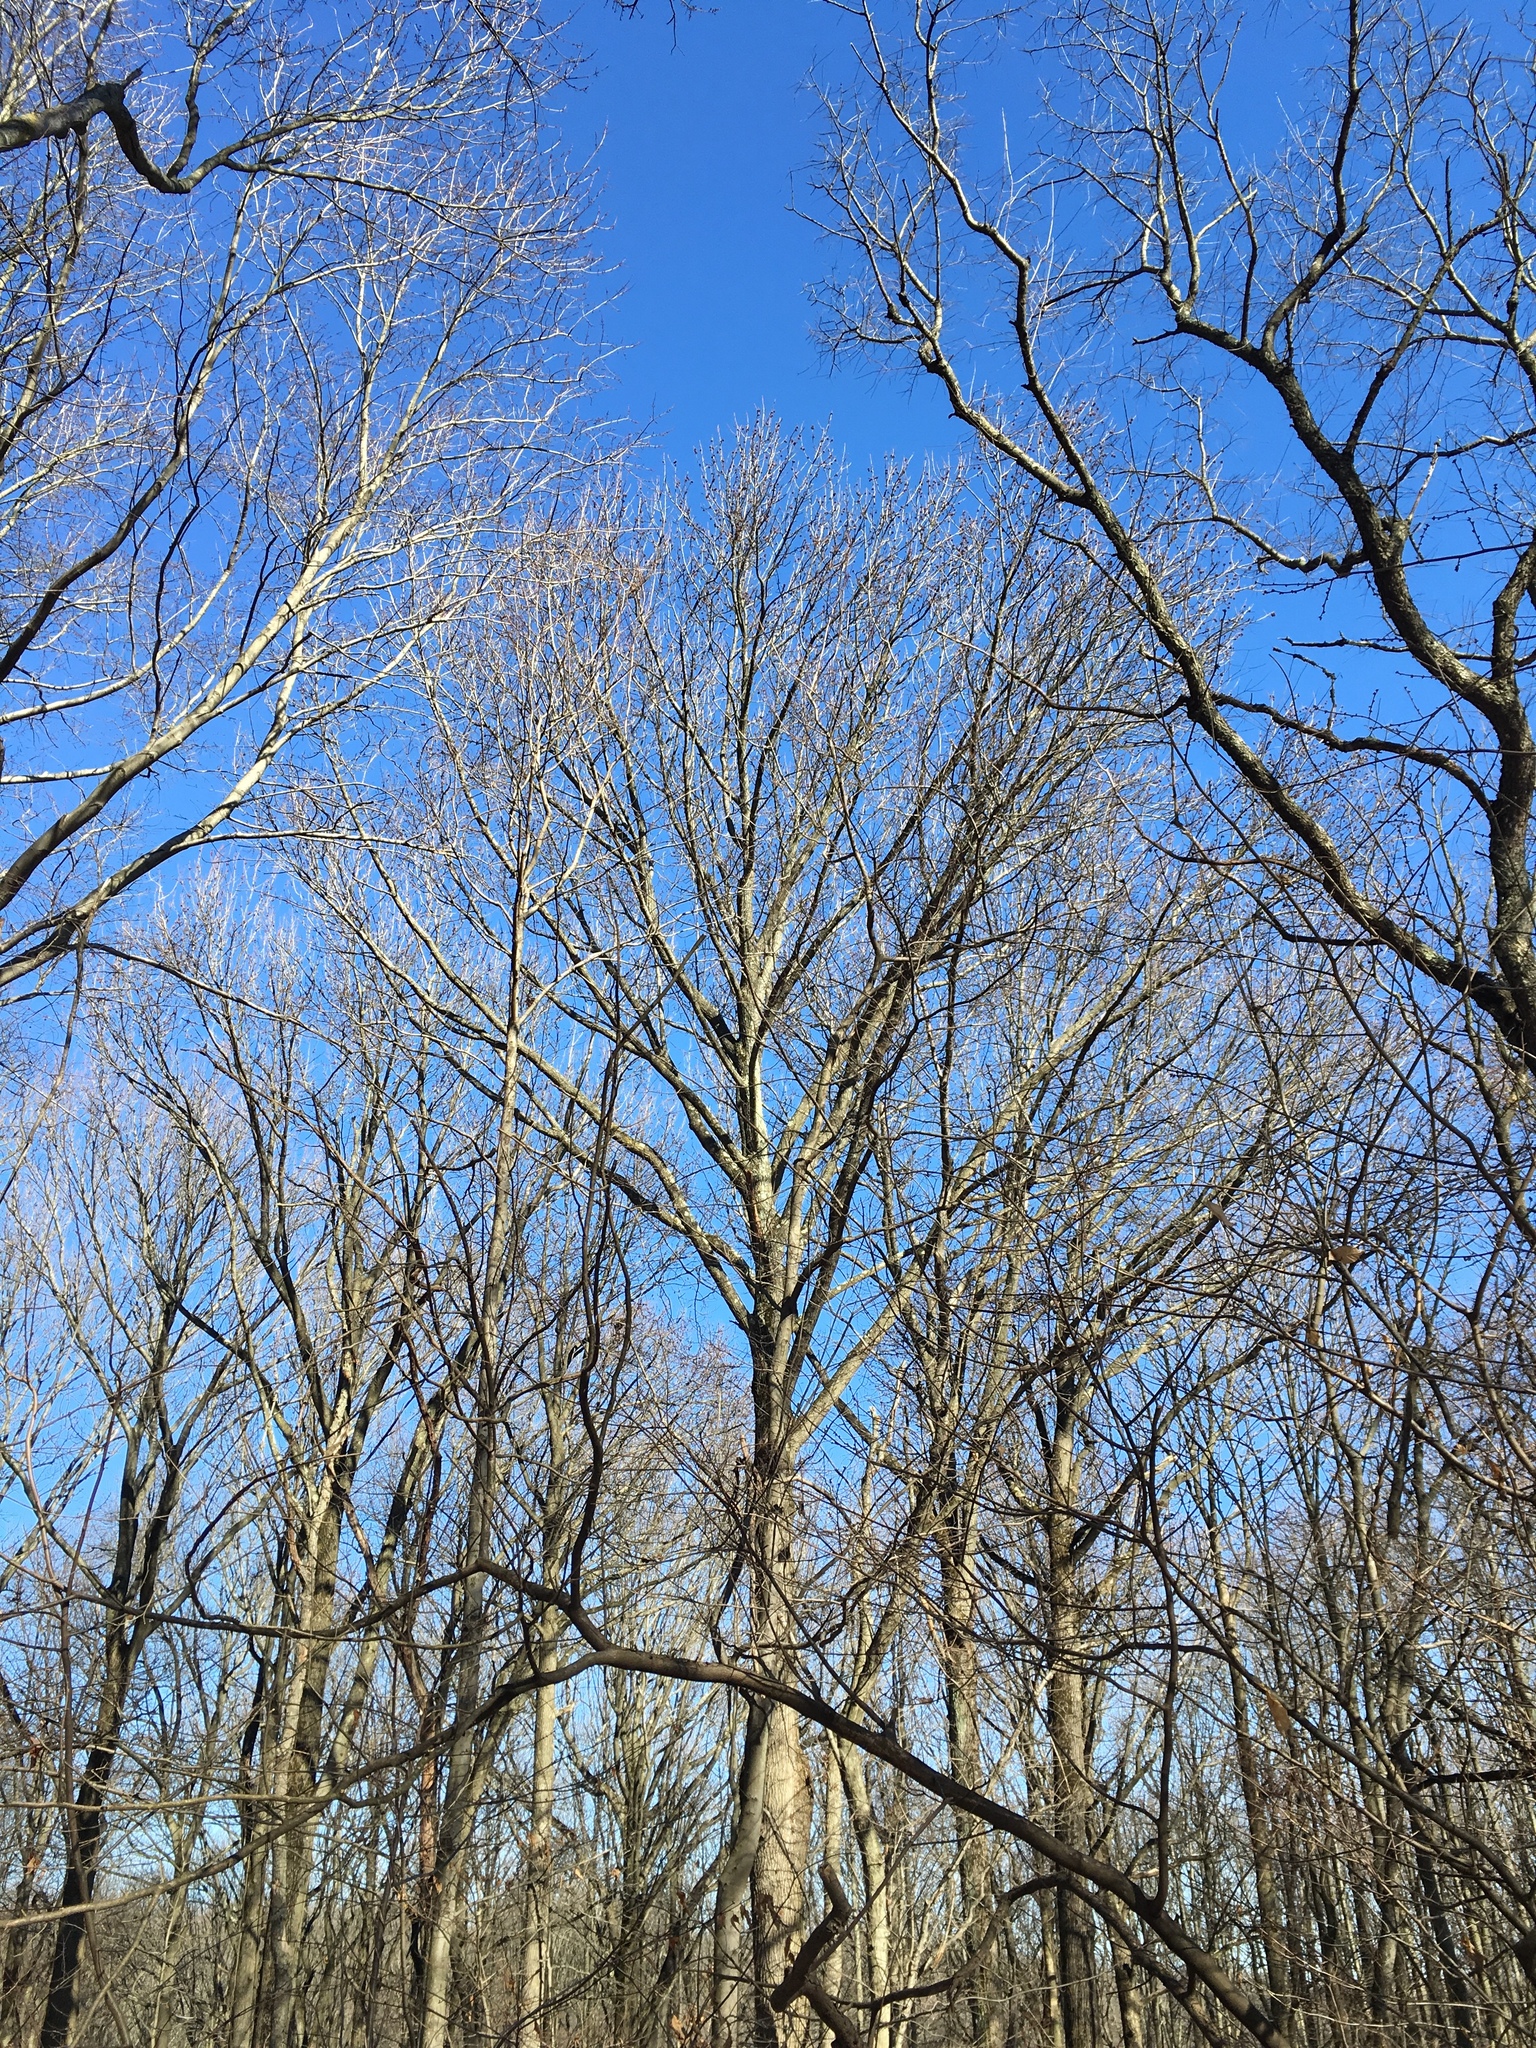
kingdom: Plantae
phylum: Tracheophyta
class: Magnoliopsida
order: Saxifragales
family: Altingiaceae
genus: Liquidambar
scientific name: Liquidambar styraciflua
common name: Sweet gum
